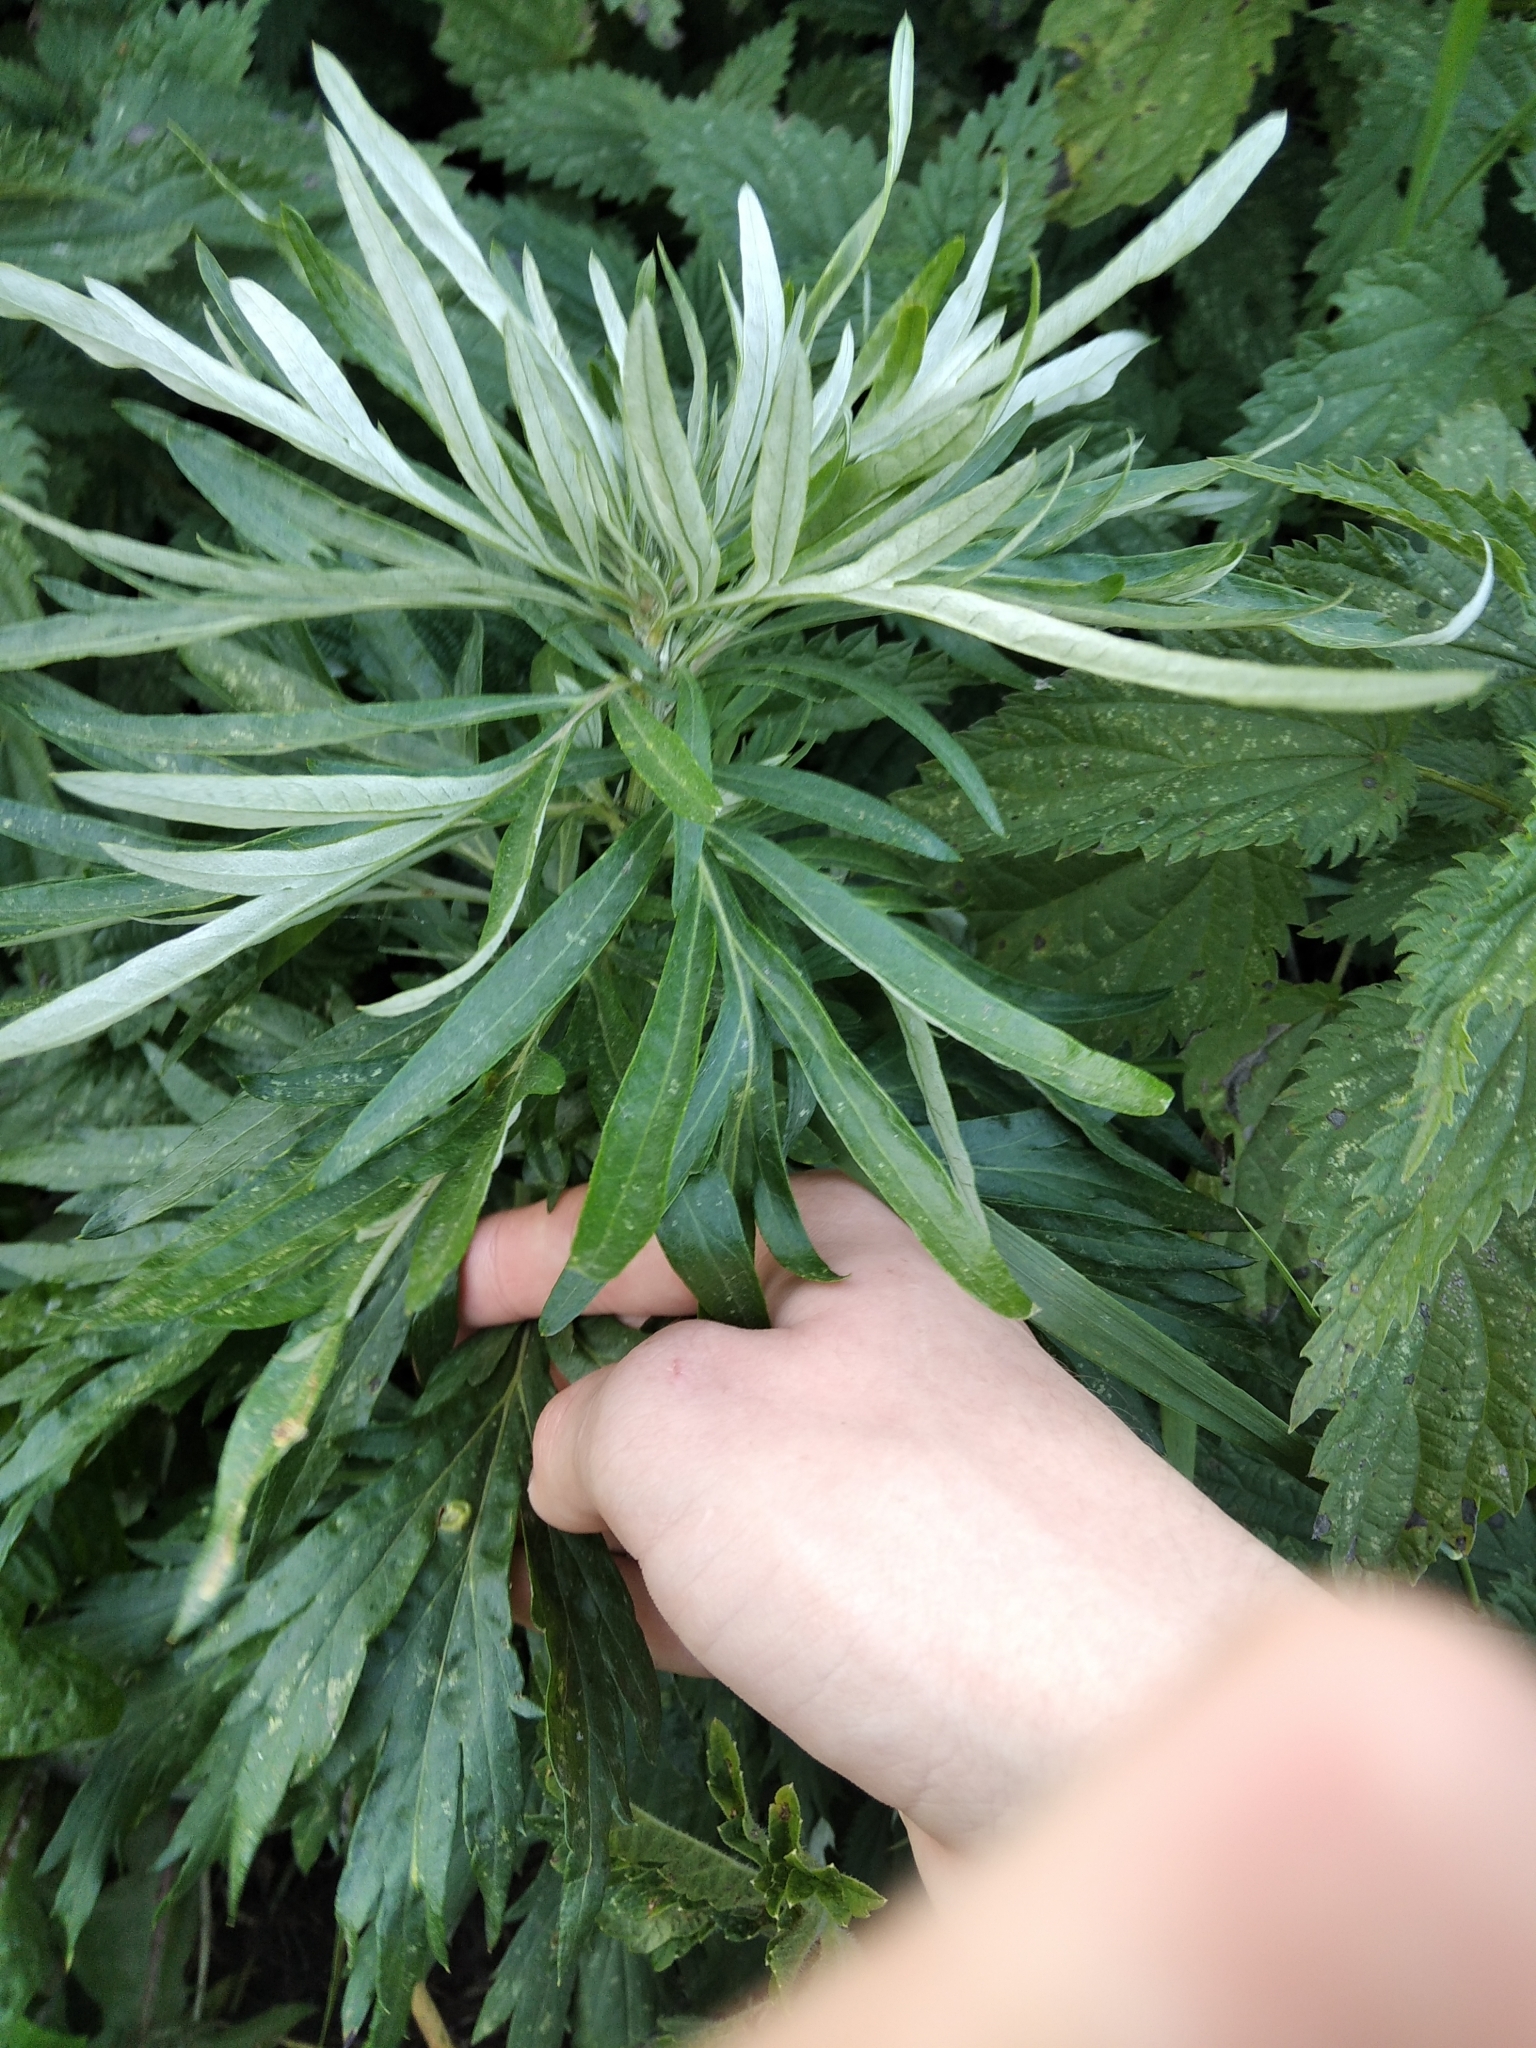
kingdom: Plantae
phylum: Tracheophyta
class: Magnoliopsida
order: Asterales
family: Asteraceae
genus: Artemisia
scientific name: Artemisia vulgaris
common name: Mugwort
